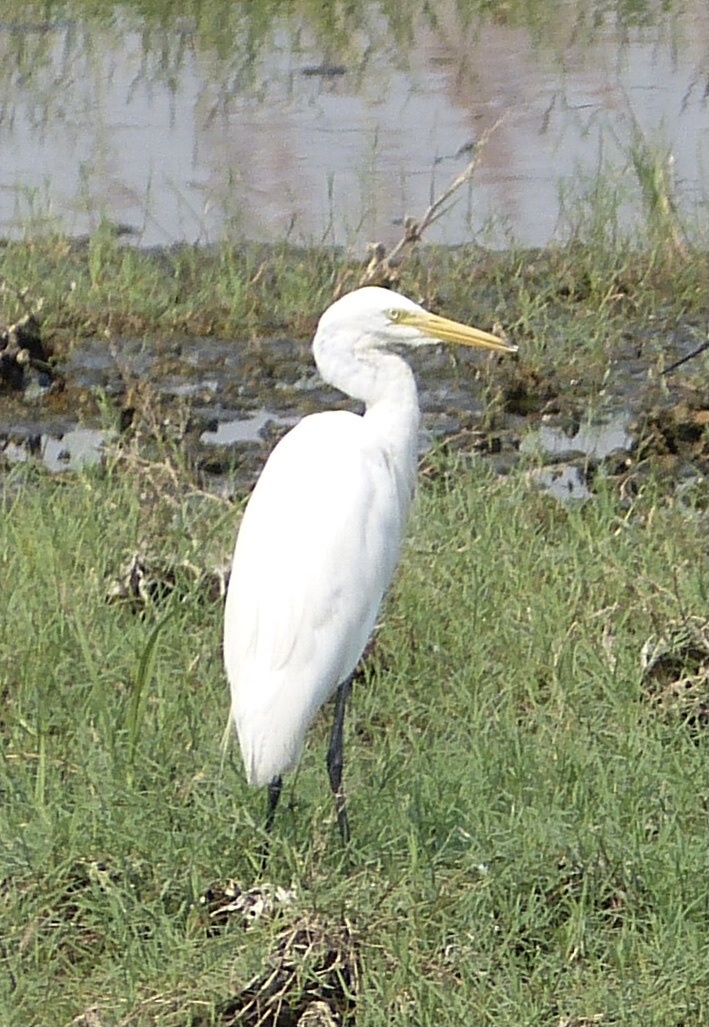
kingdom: Animalia
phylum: Chordata
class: Aves
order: Pelecaniformes
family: Ardeidae
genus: Egretta
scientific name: Egretta intermedia
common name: Intermediate egret
